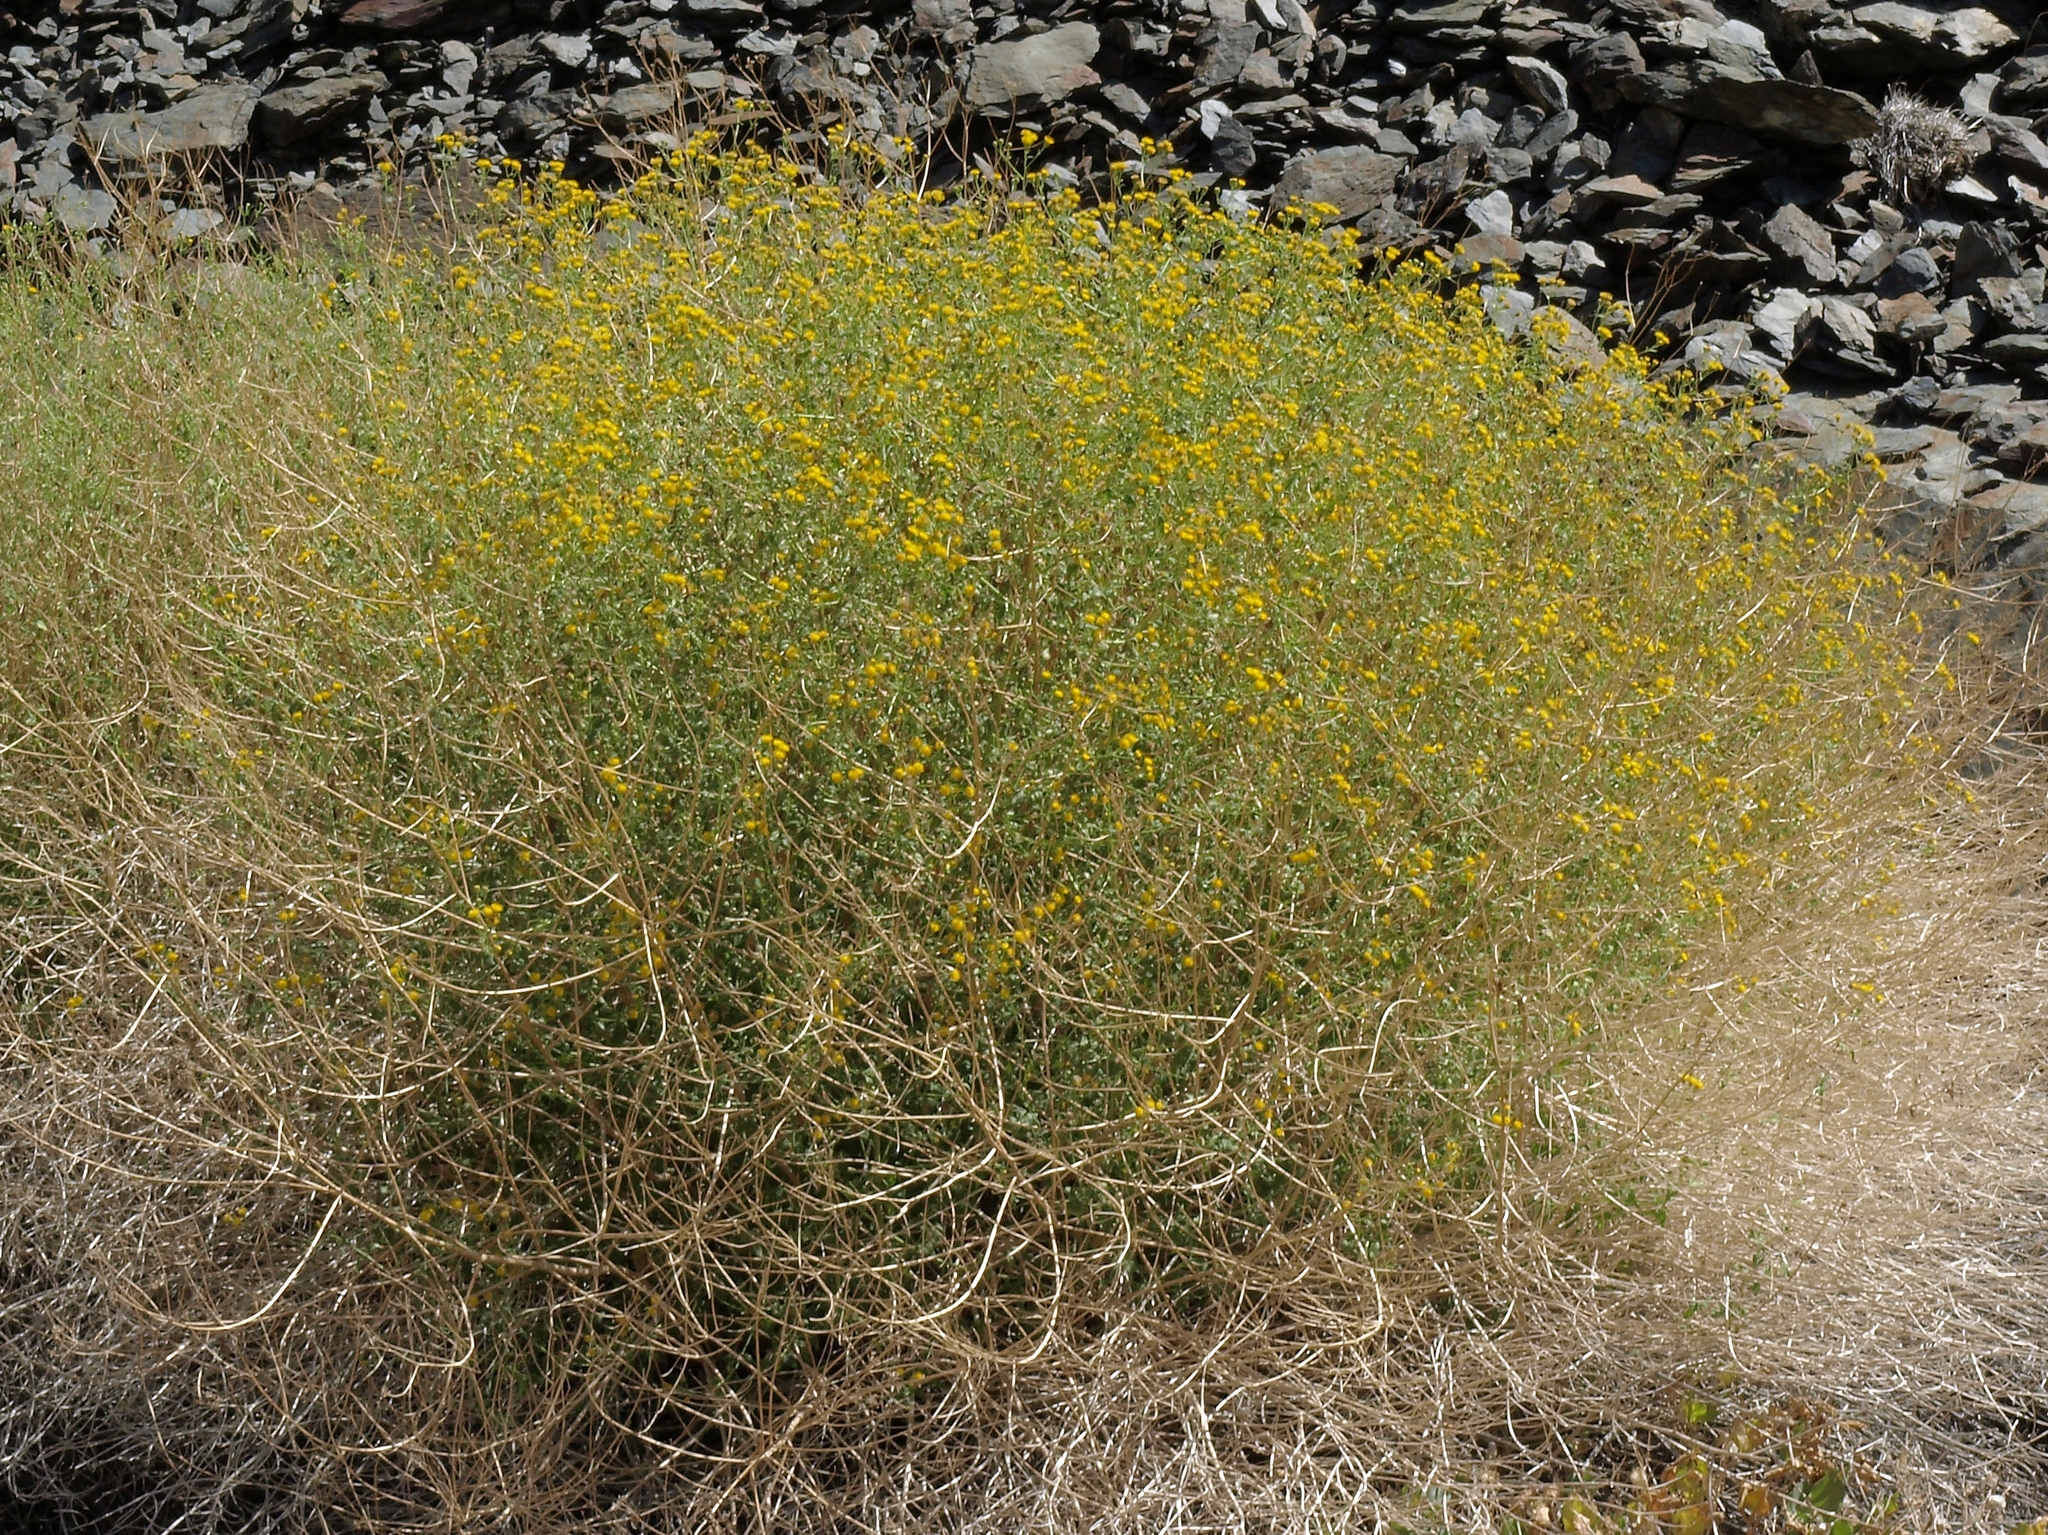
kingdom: Plantae
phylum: Tracheophyta
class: Magnoliopsida
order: Asterales
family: Asteraceae
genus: Pericome
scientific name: Pericome caudata
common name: Taperleaf
